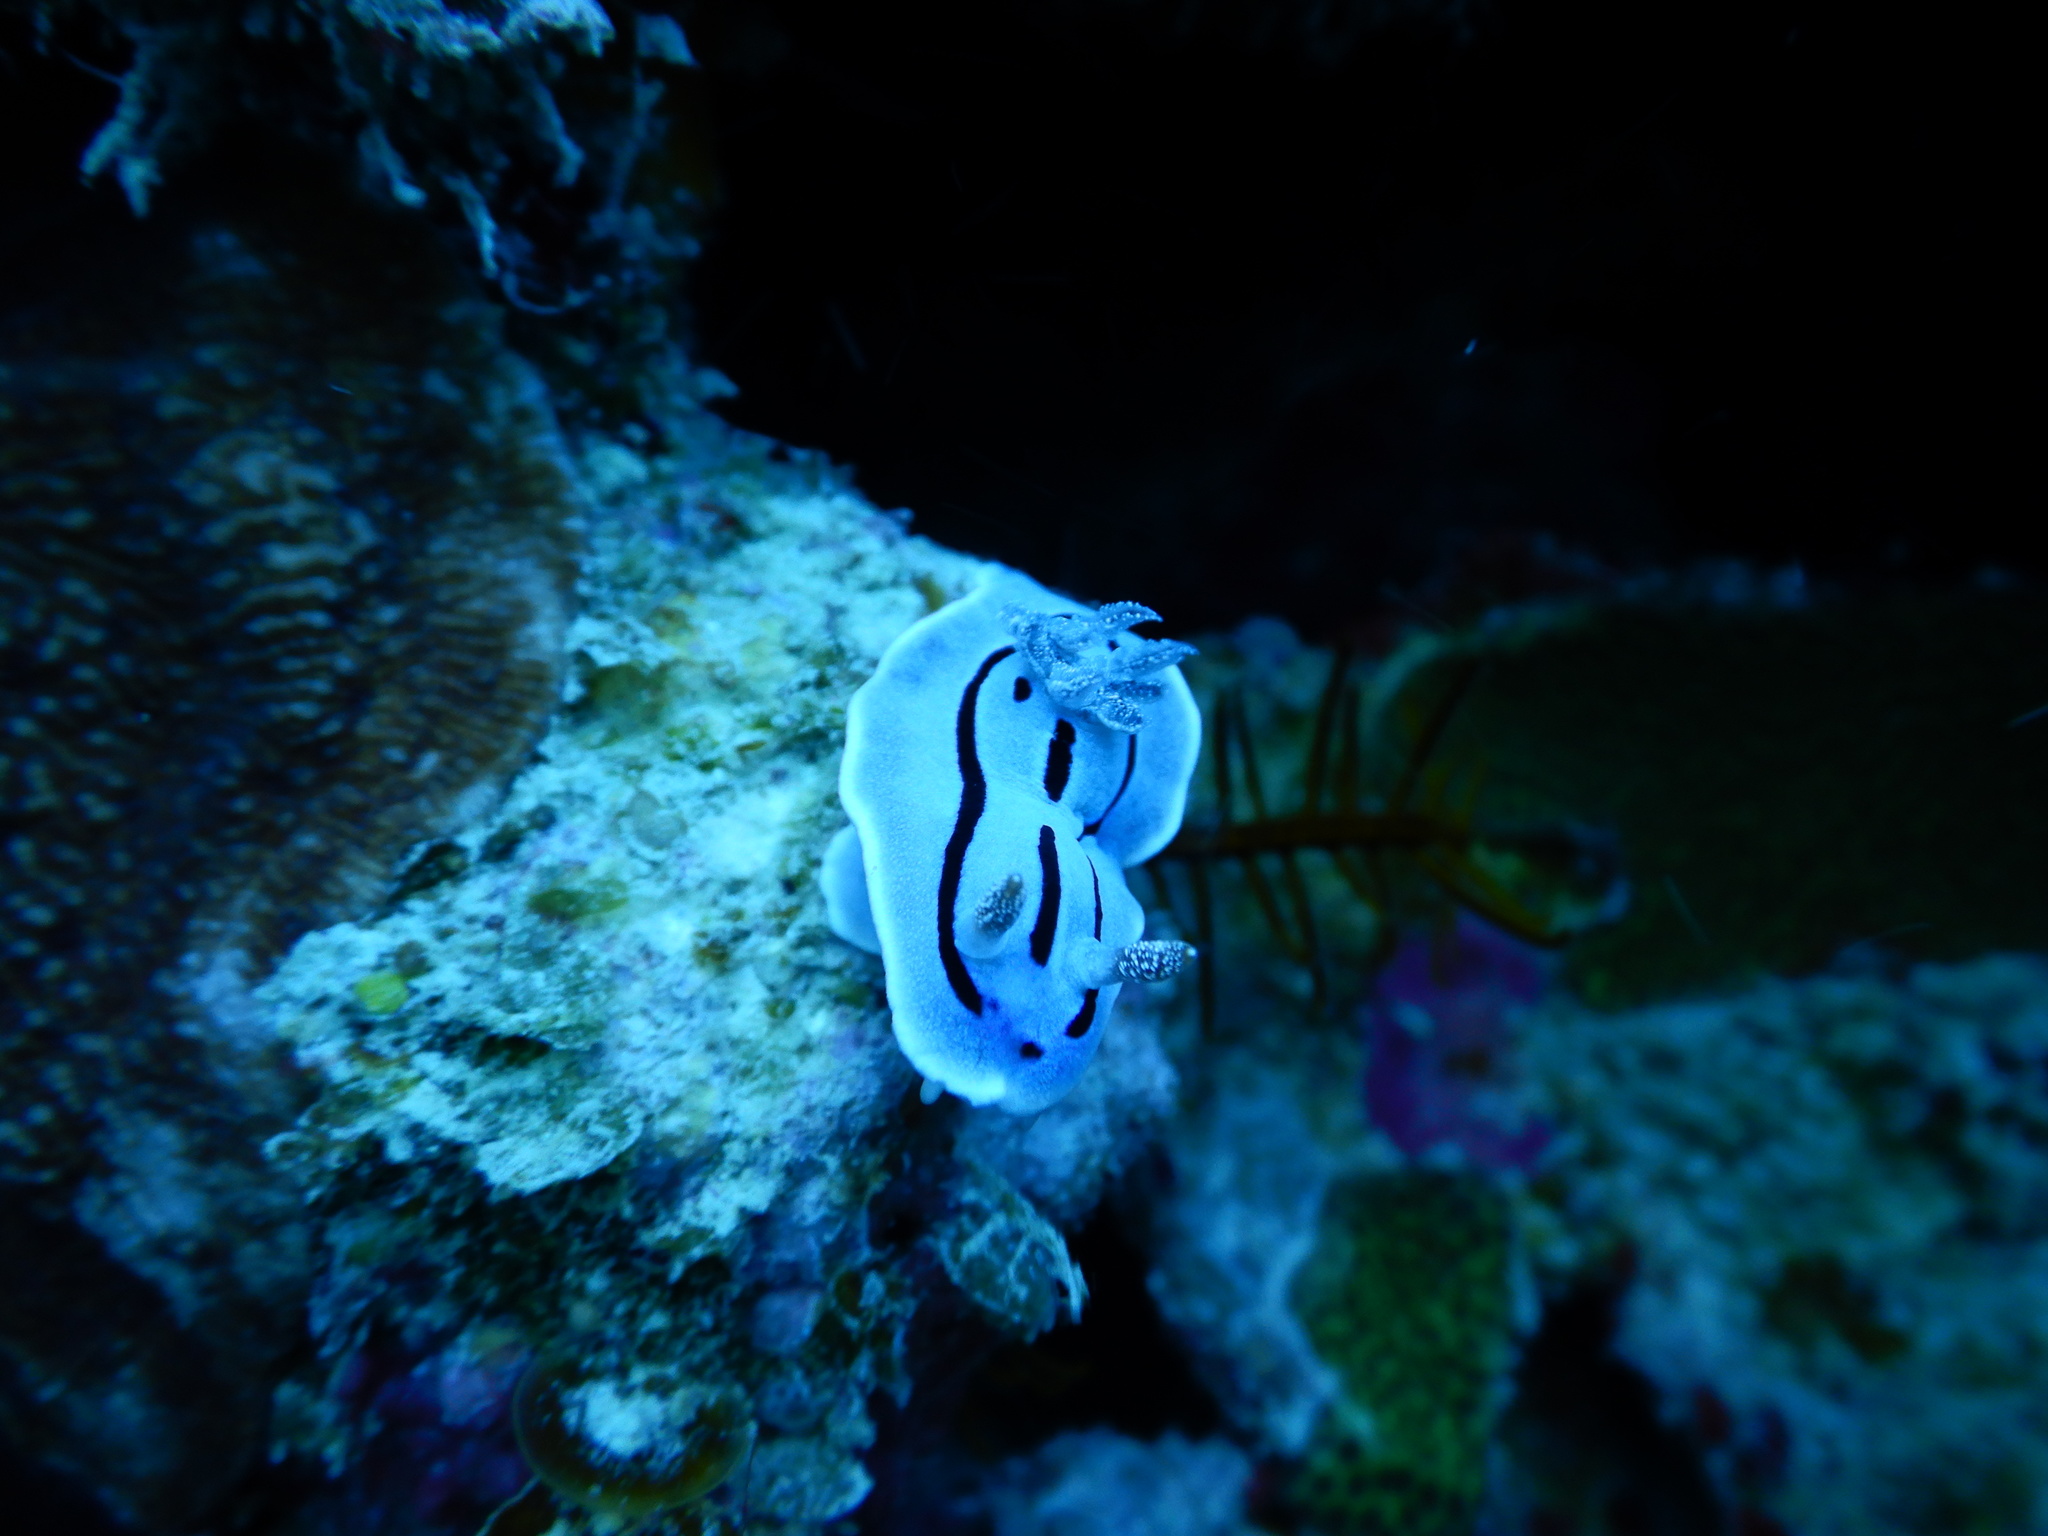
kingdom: Animalia
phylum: Mollusca
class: Gastropoda
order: Nudibranchia
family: Chromodorididae
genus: Chromodoris
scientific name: Chromodoris willani
